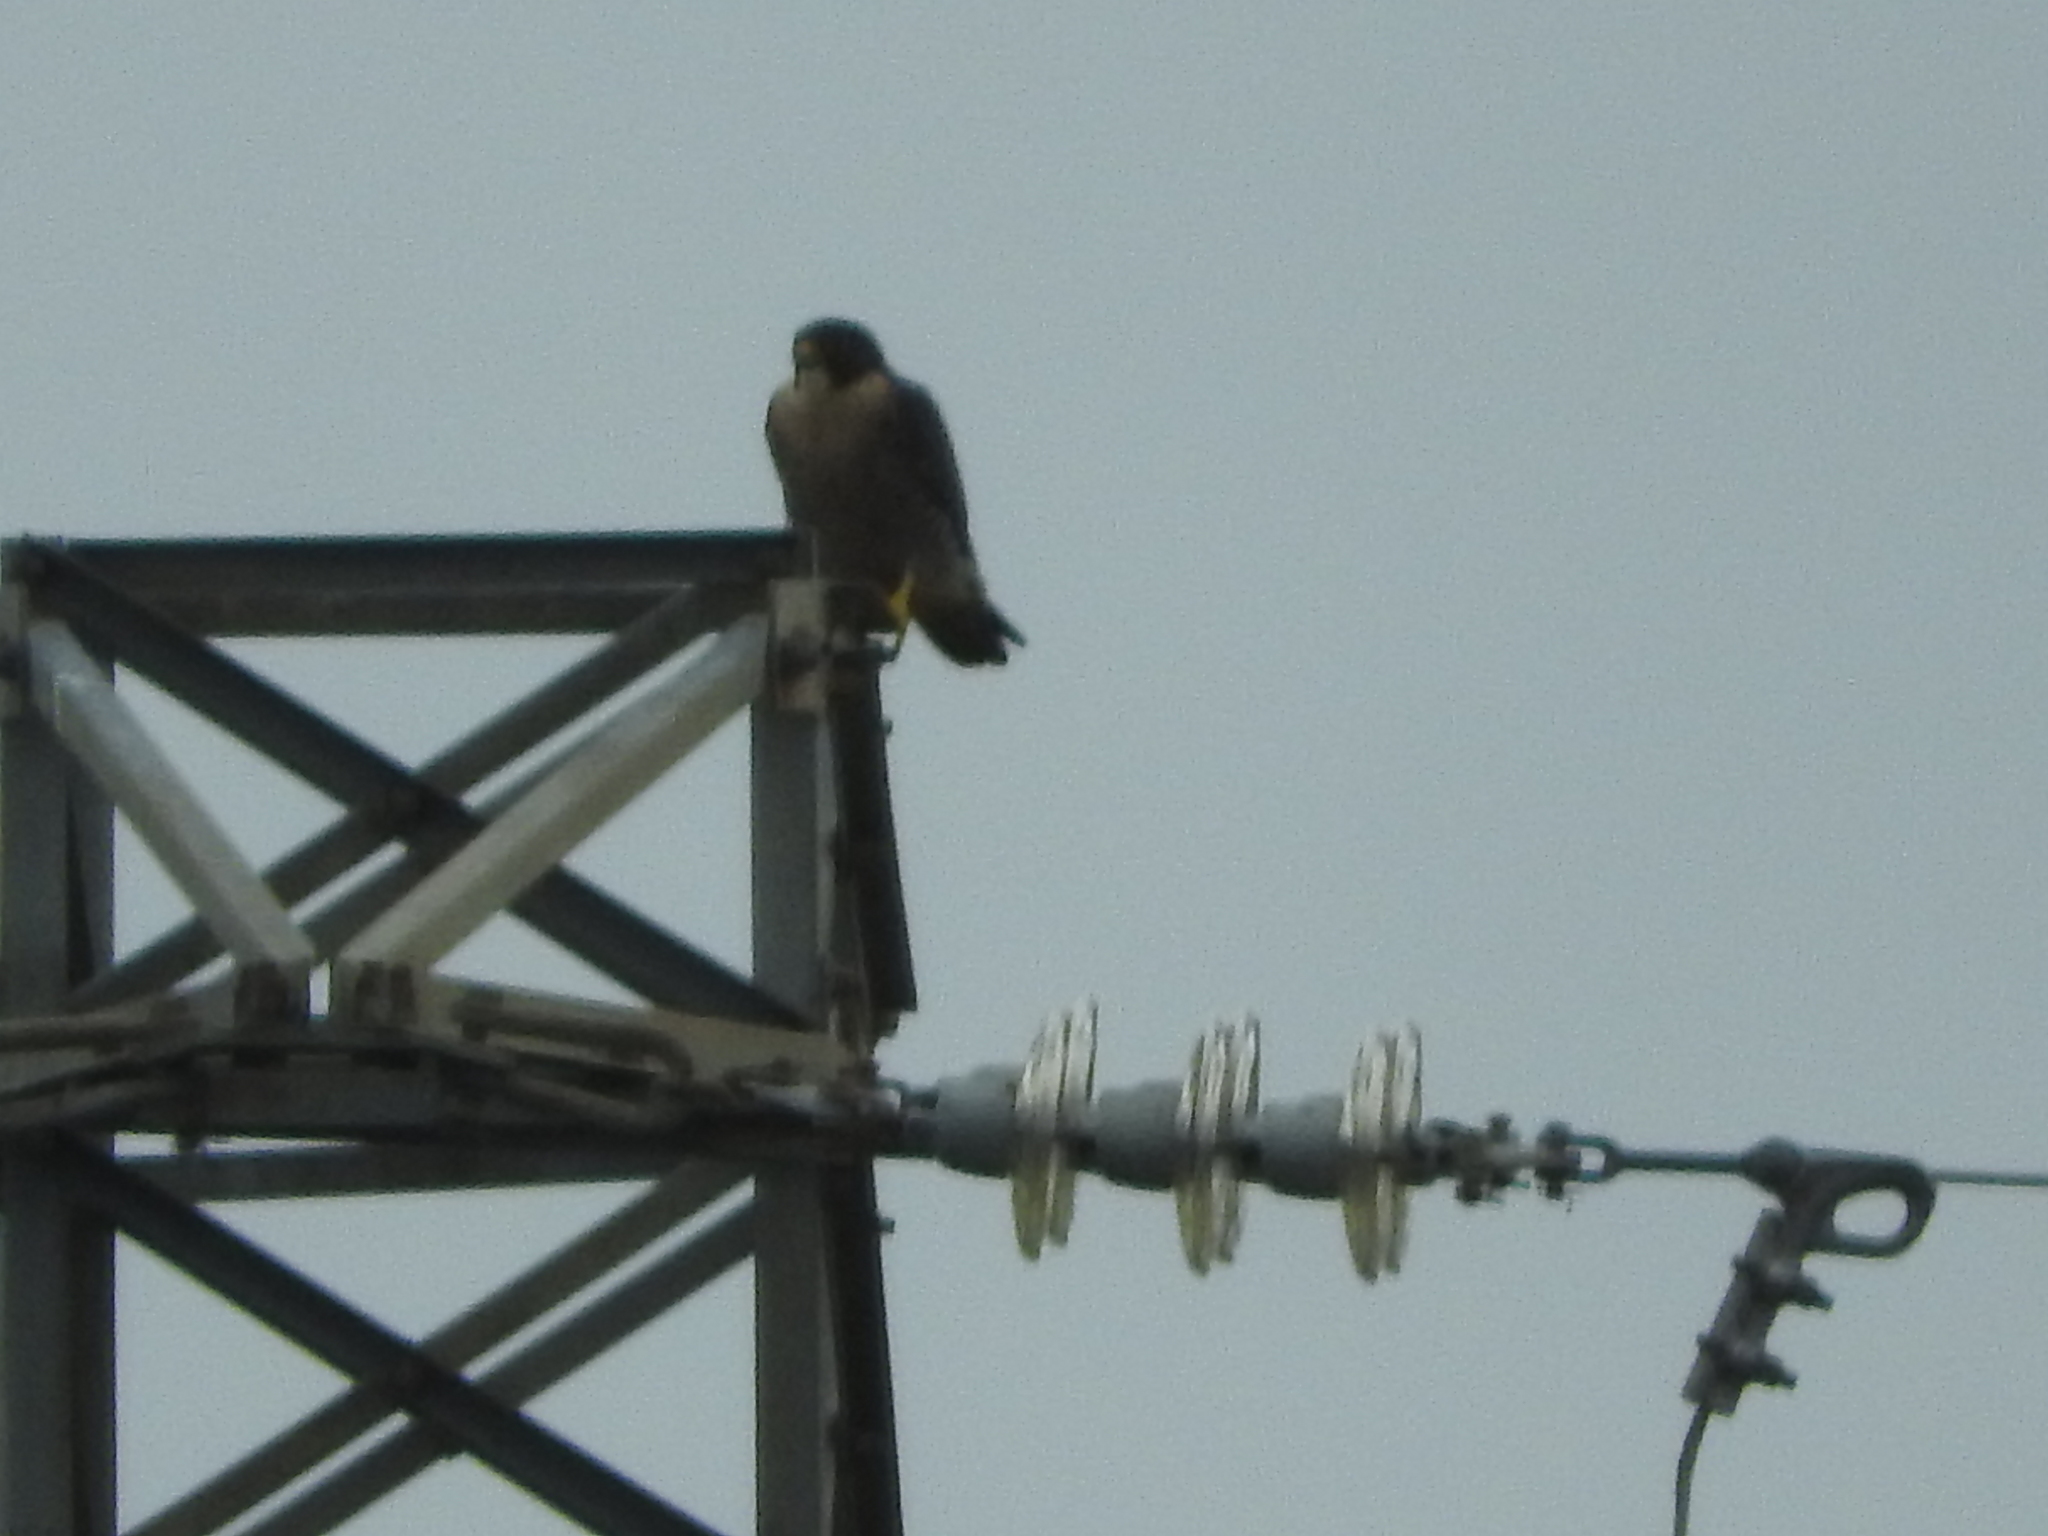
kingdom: Animalia
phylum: Chordata
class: Aves
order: Falconiformes
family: Falconidae
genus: Falco
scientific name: Falco peregrinus
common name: Peregrine falcon
